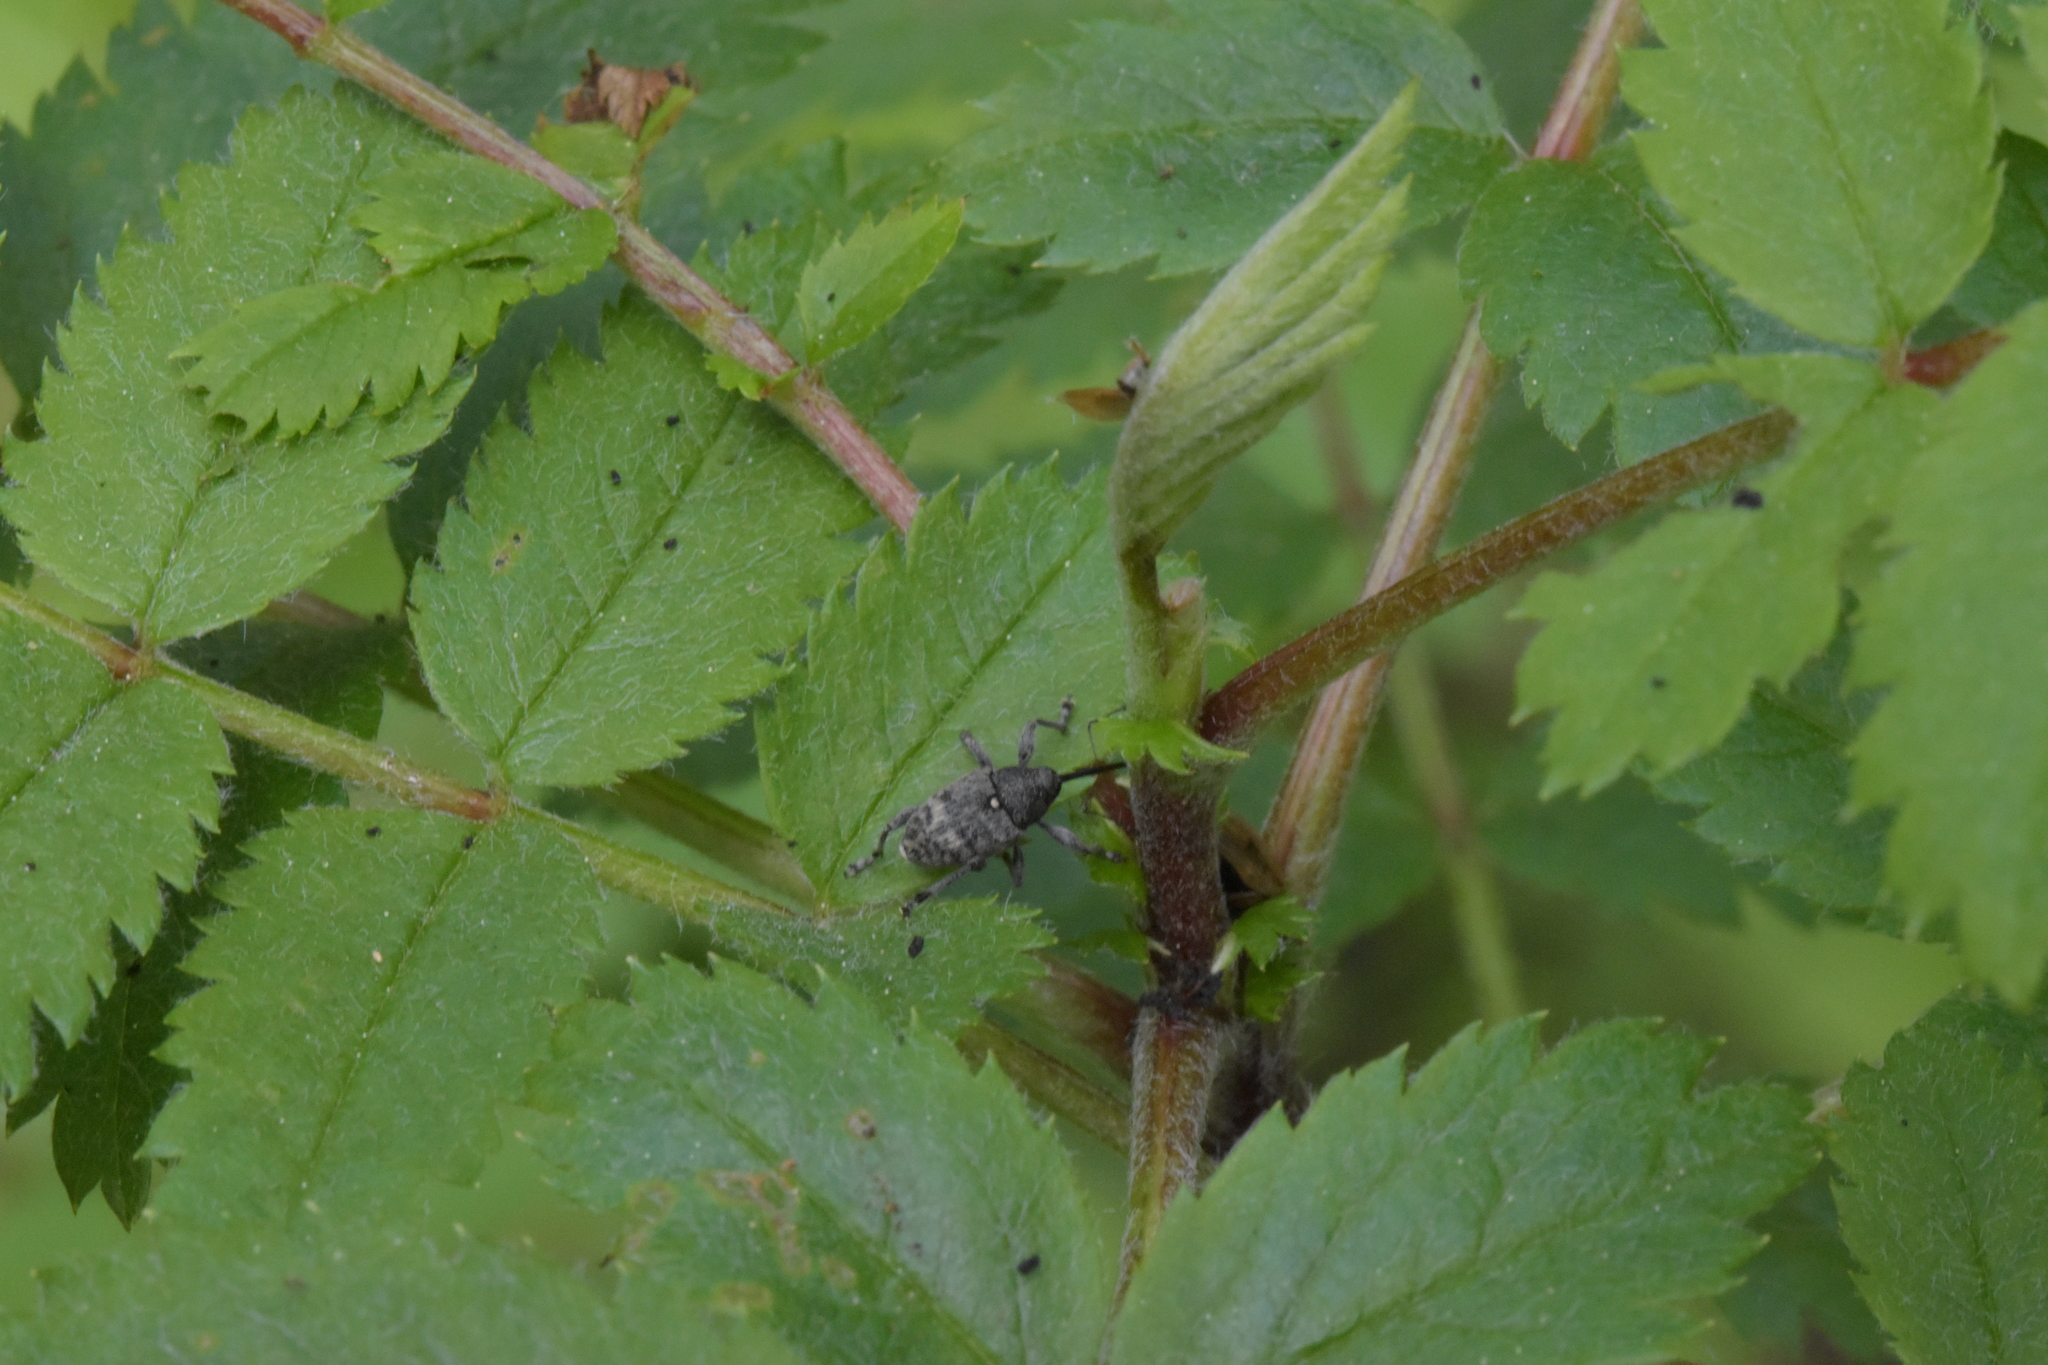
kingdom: Animalia
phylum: Arthropoda
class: Insecta
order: Coleoptera
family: Curculionidae
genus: Curculio
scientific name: Curculio villosus
